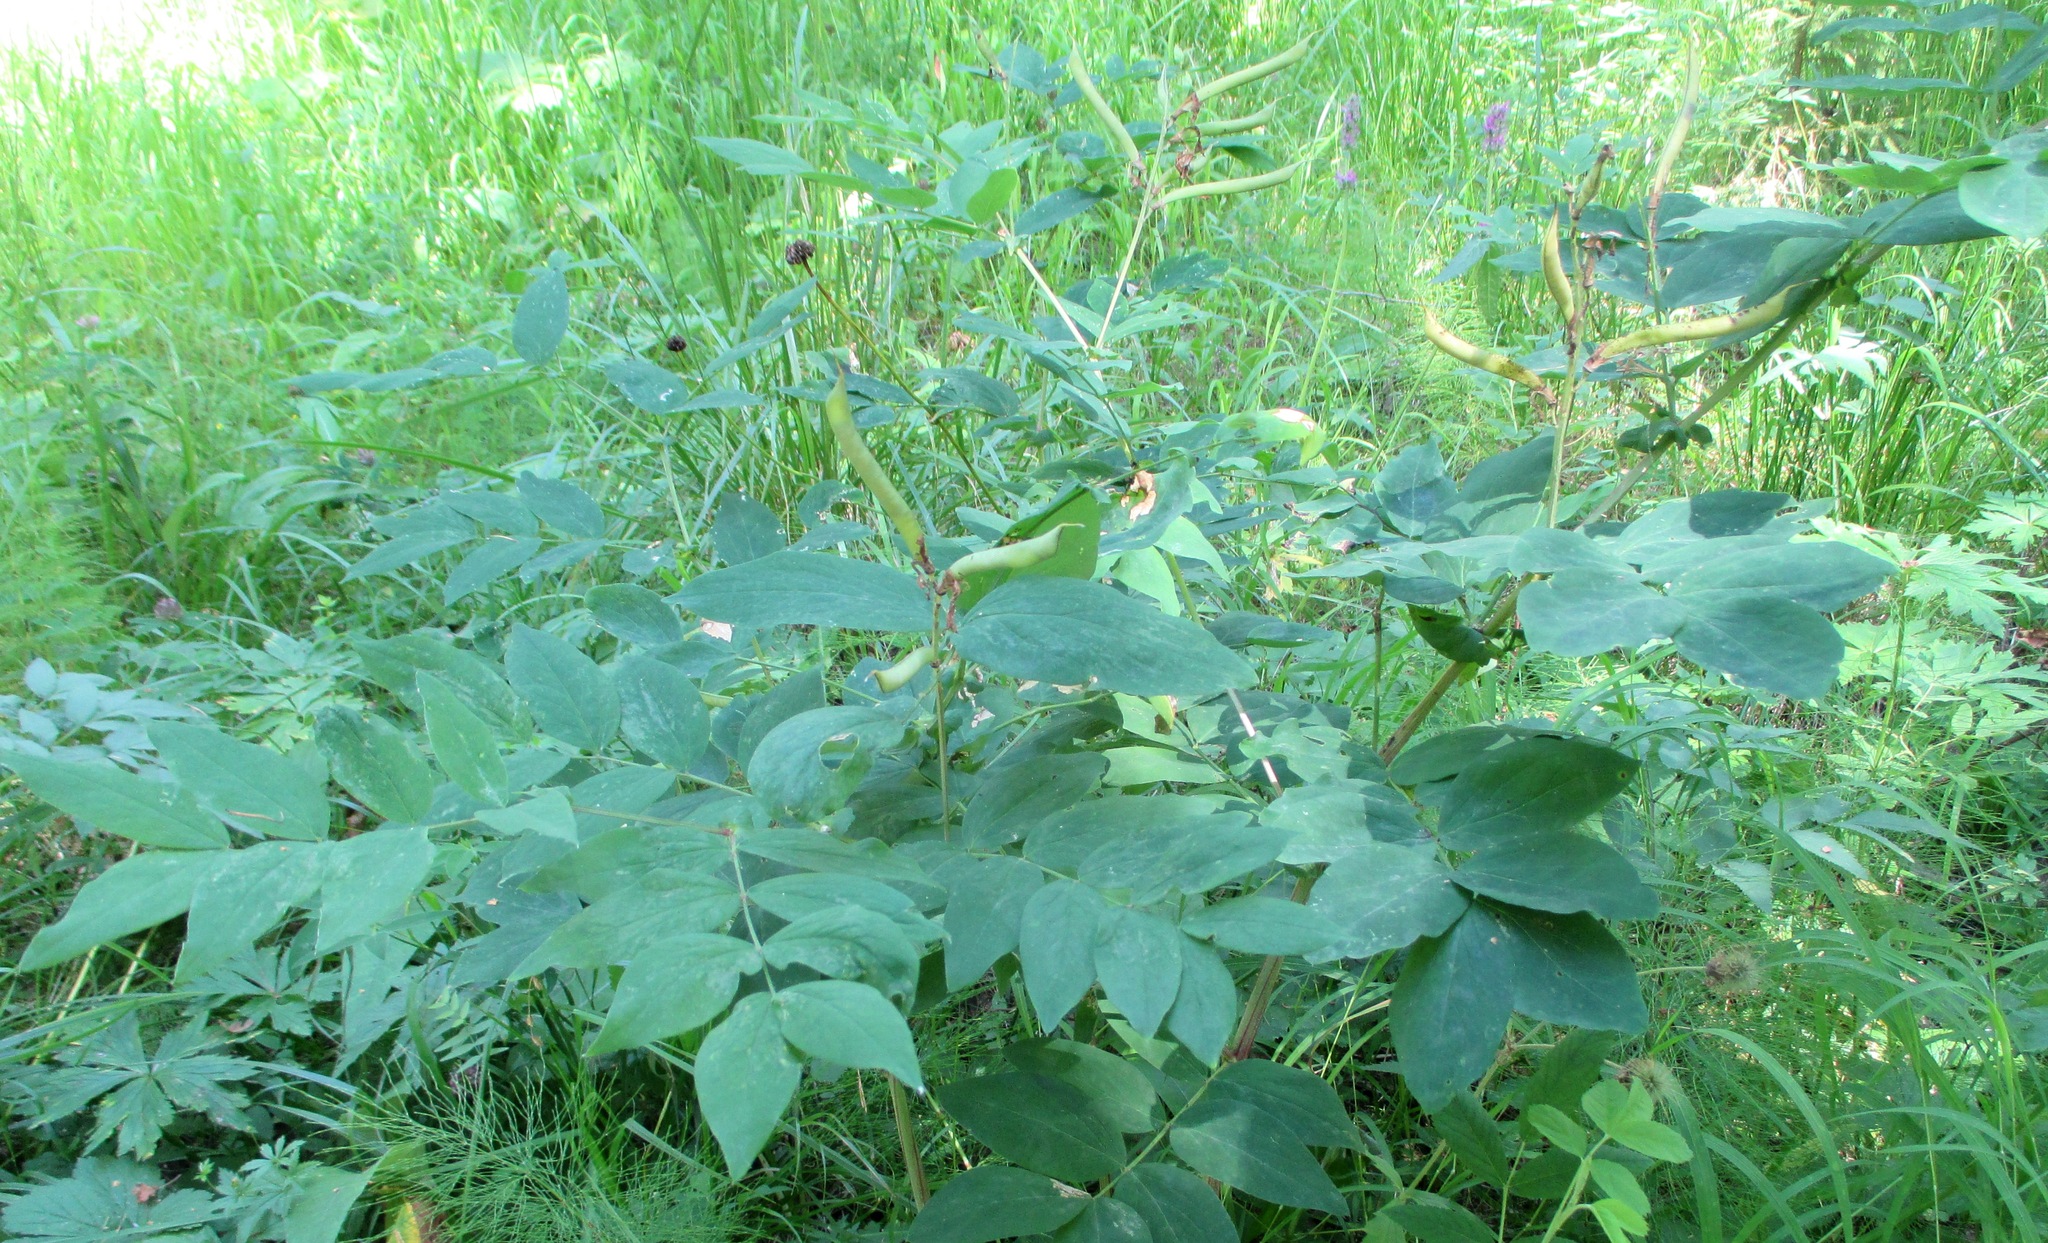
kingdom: Plantae
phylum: Tracheophyta
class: Magnoliopsida
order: Fabales
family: Fabaceae
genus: Lathyrus
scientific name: Lathyrus gmelinii
